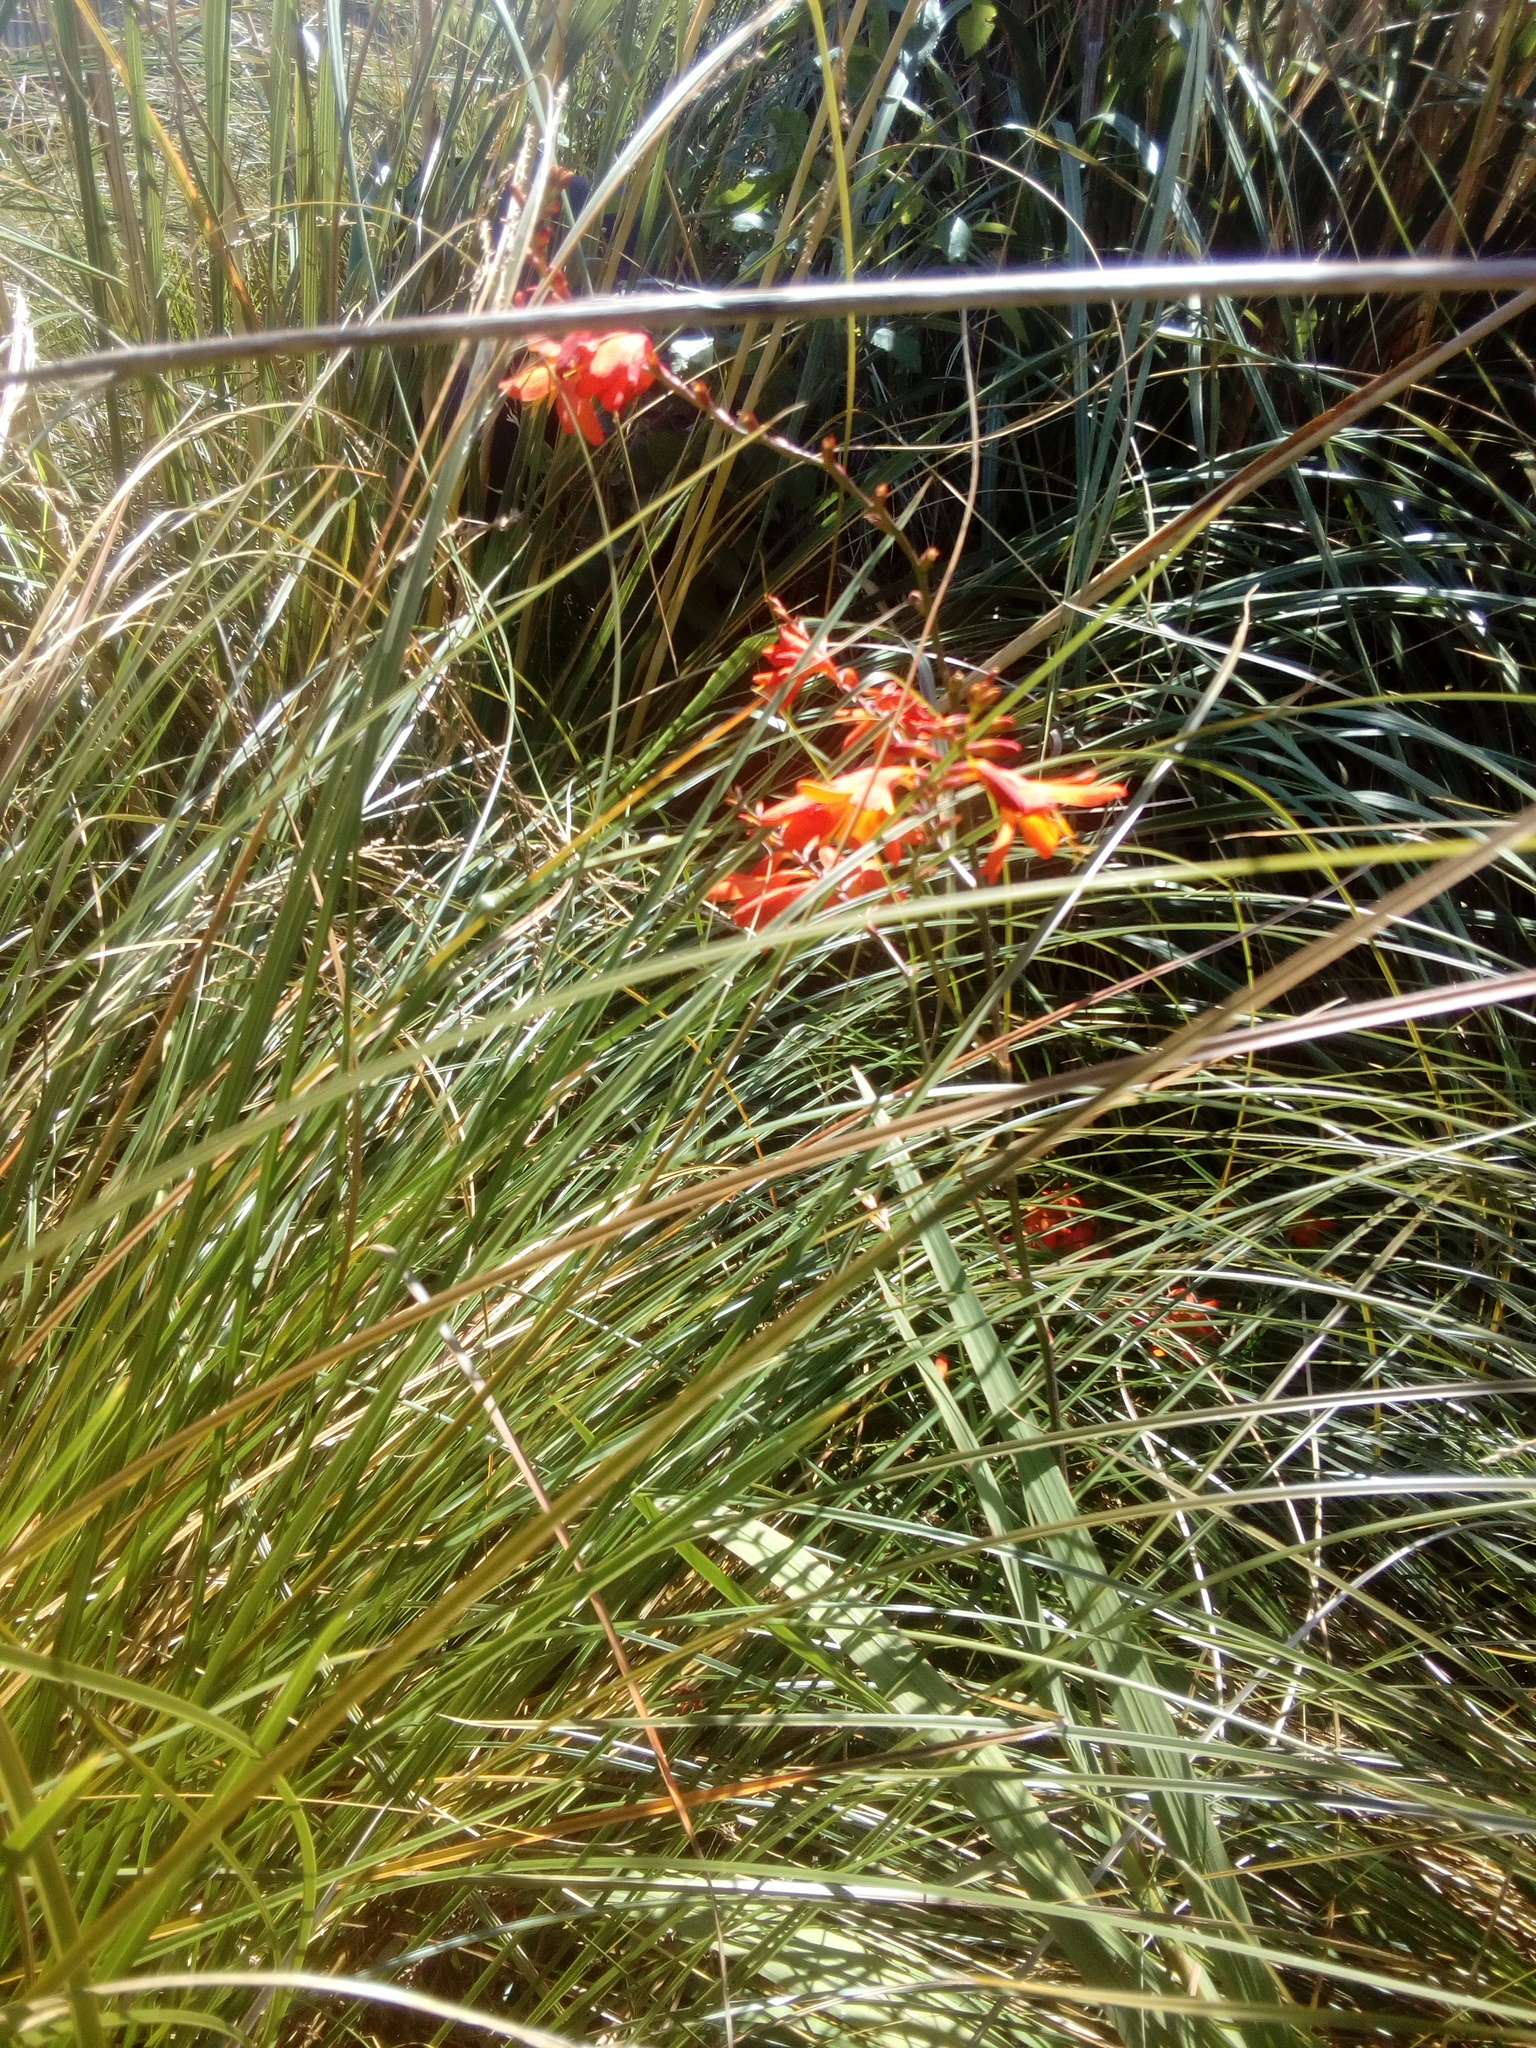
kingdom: Plantae
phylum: Tracheophyta
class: Liliopsida
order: Asparagales
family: Iridaceae
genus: Crocosmia
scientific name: Crocosmia crocosmiiflora
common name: Montbretia
